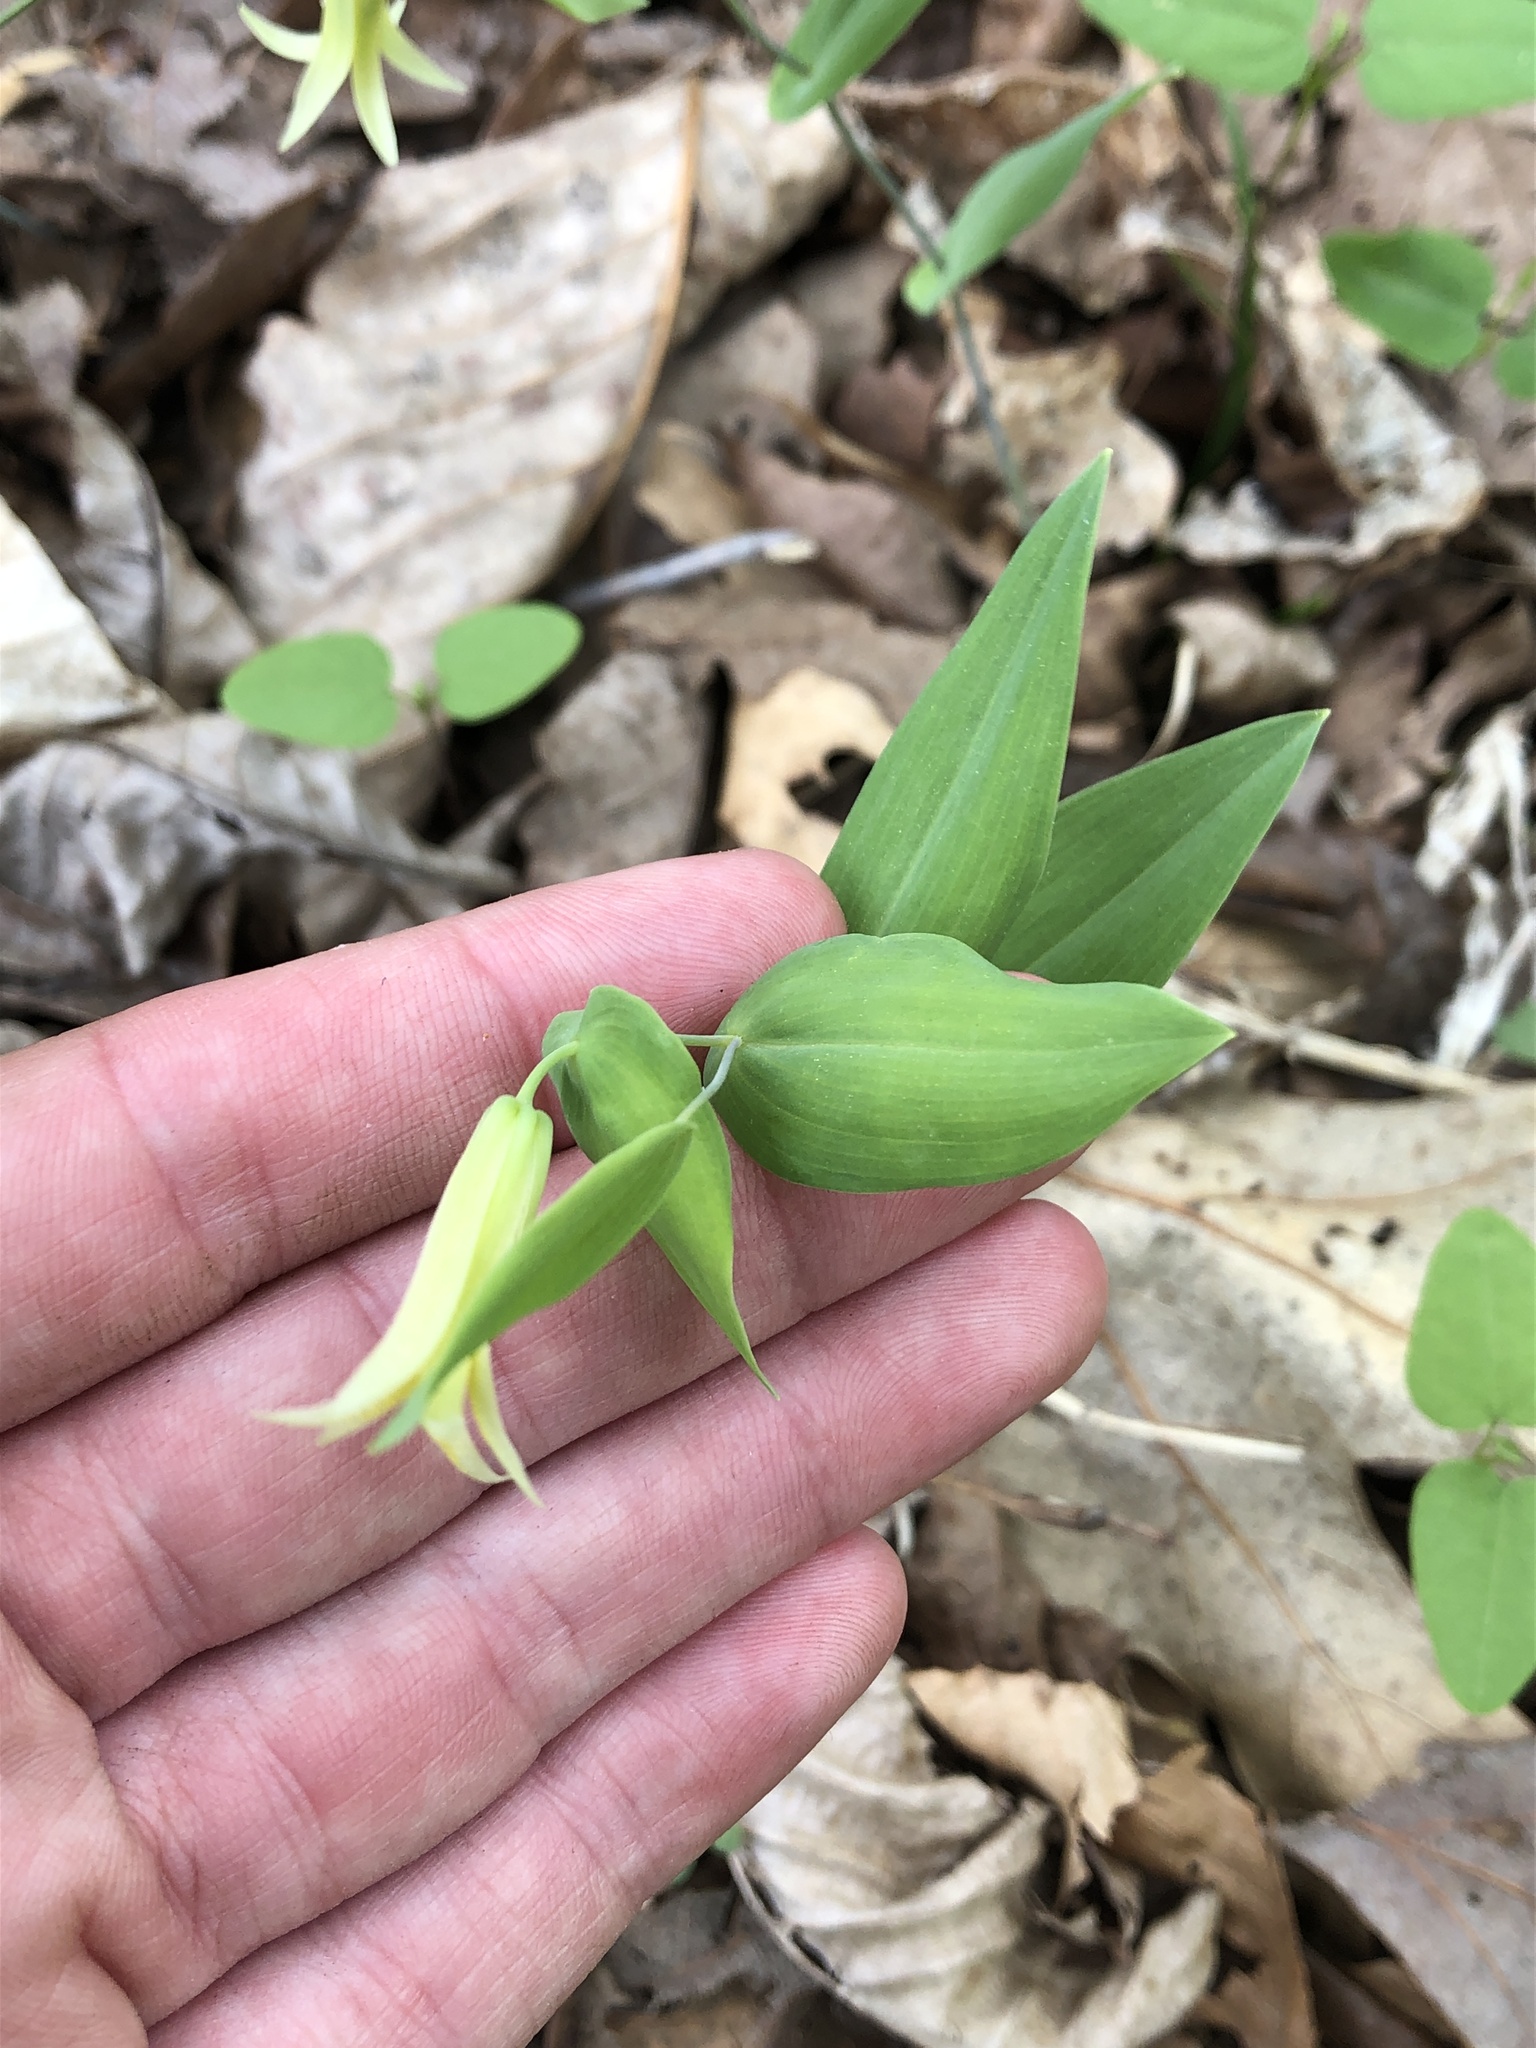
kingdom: Plantae
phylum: Tracheophyta
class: Liliopsida
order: Liliales
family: Colchicaceae
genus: Uvularia
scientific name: Uvularia perfoliata
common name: Perfoliate bellwort
